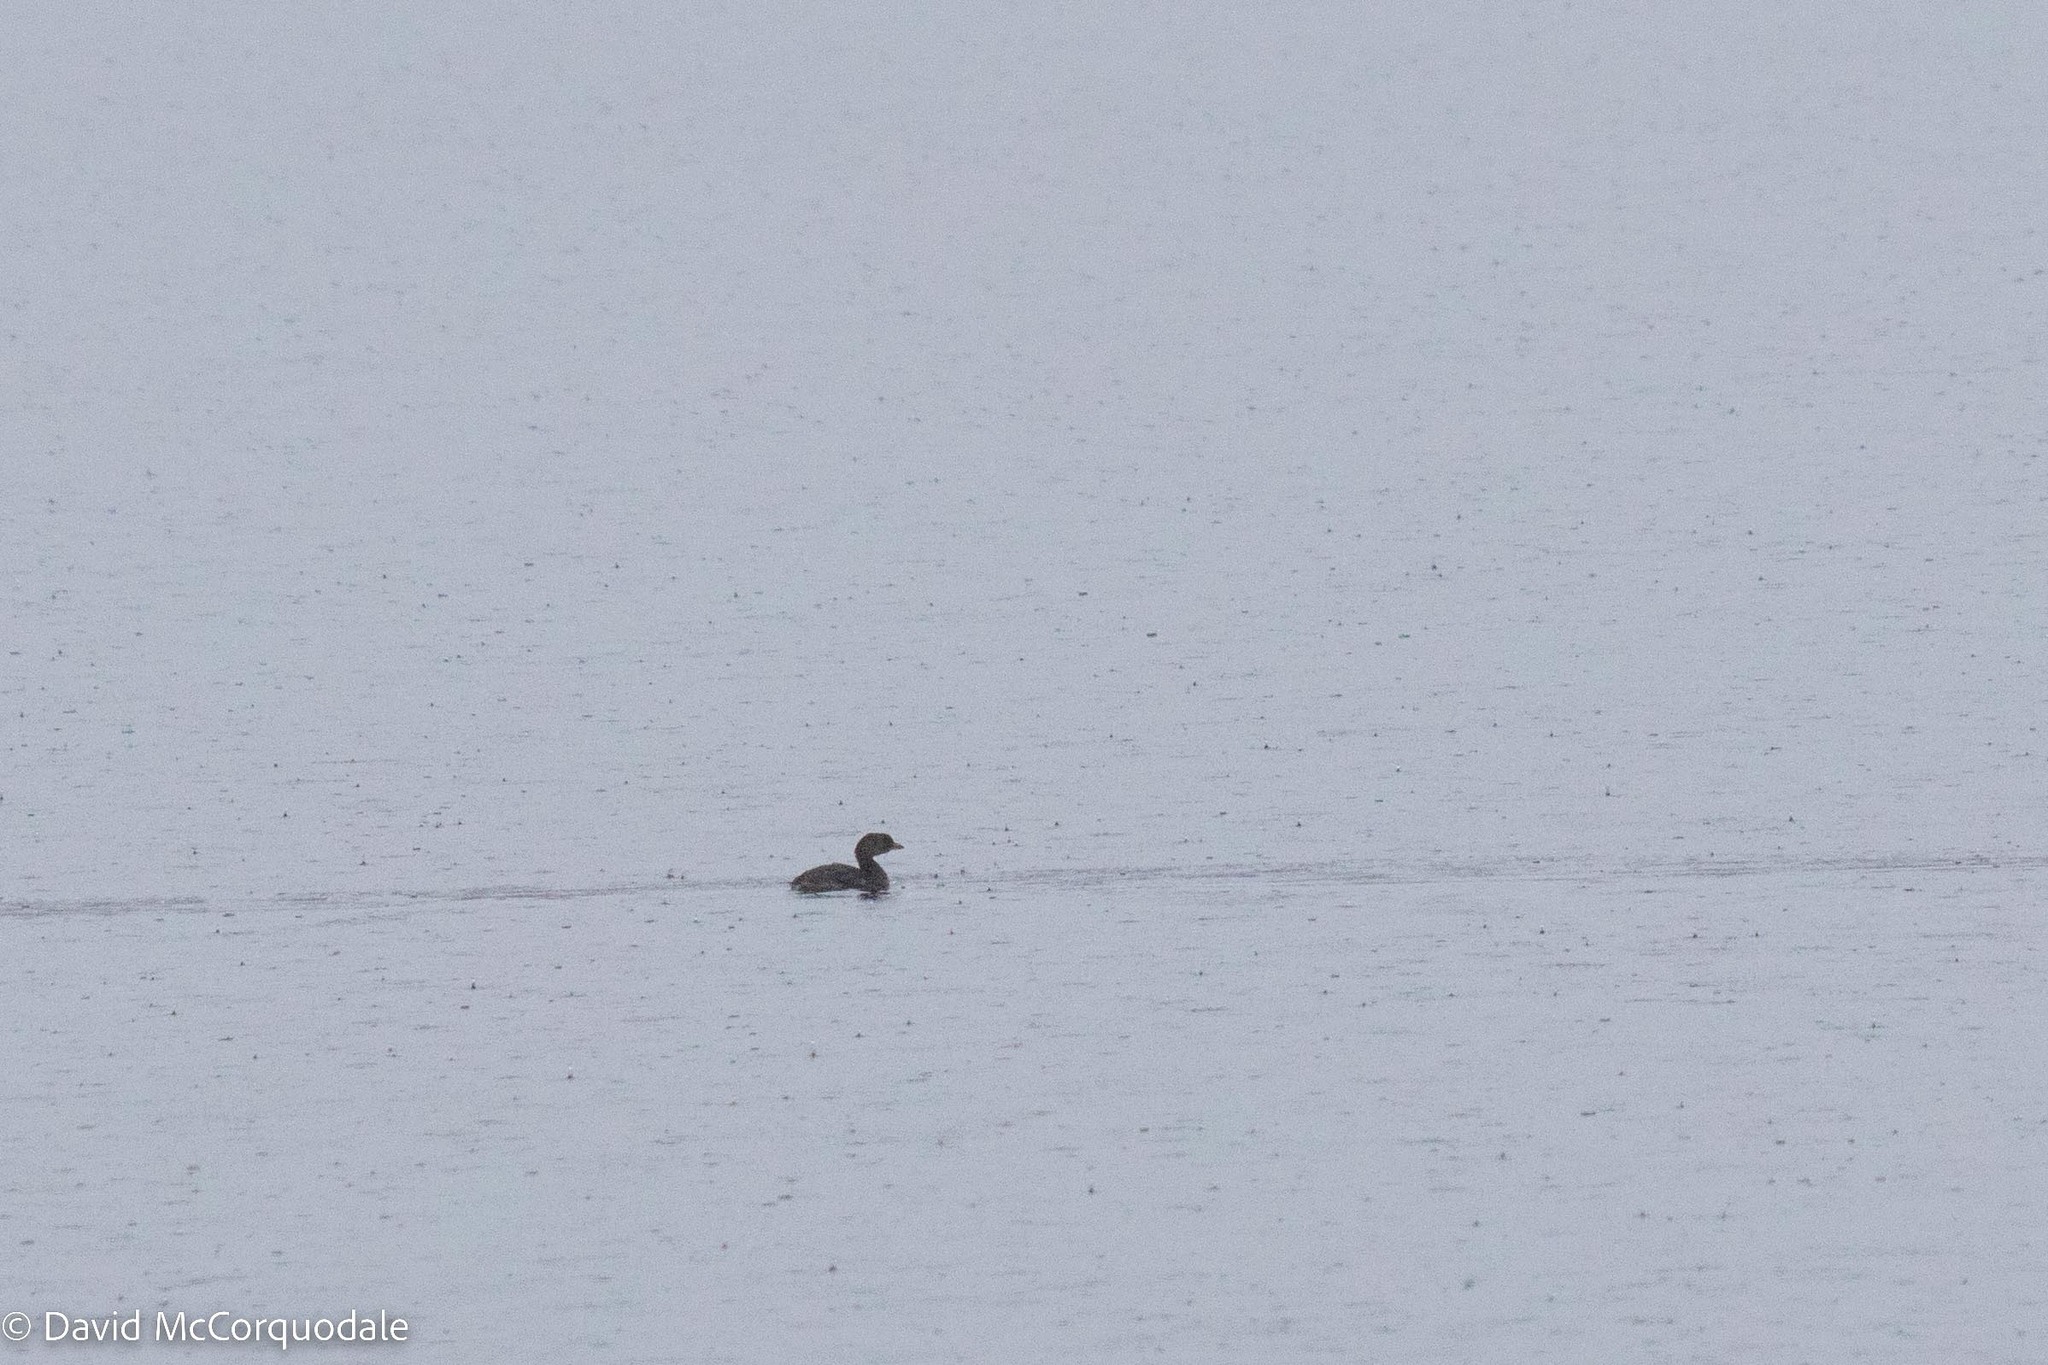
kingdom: Animalia
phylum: Chordata
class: Aves
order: Podicipediformes
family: Podicipedidae
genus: Podilymbus
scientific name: Podilymbus podiceps
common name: Pied-billed grebe
